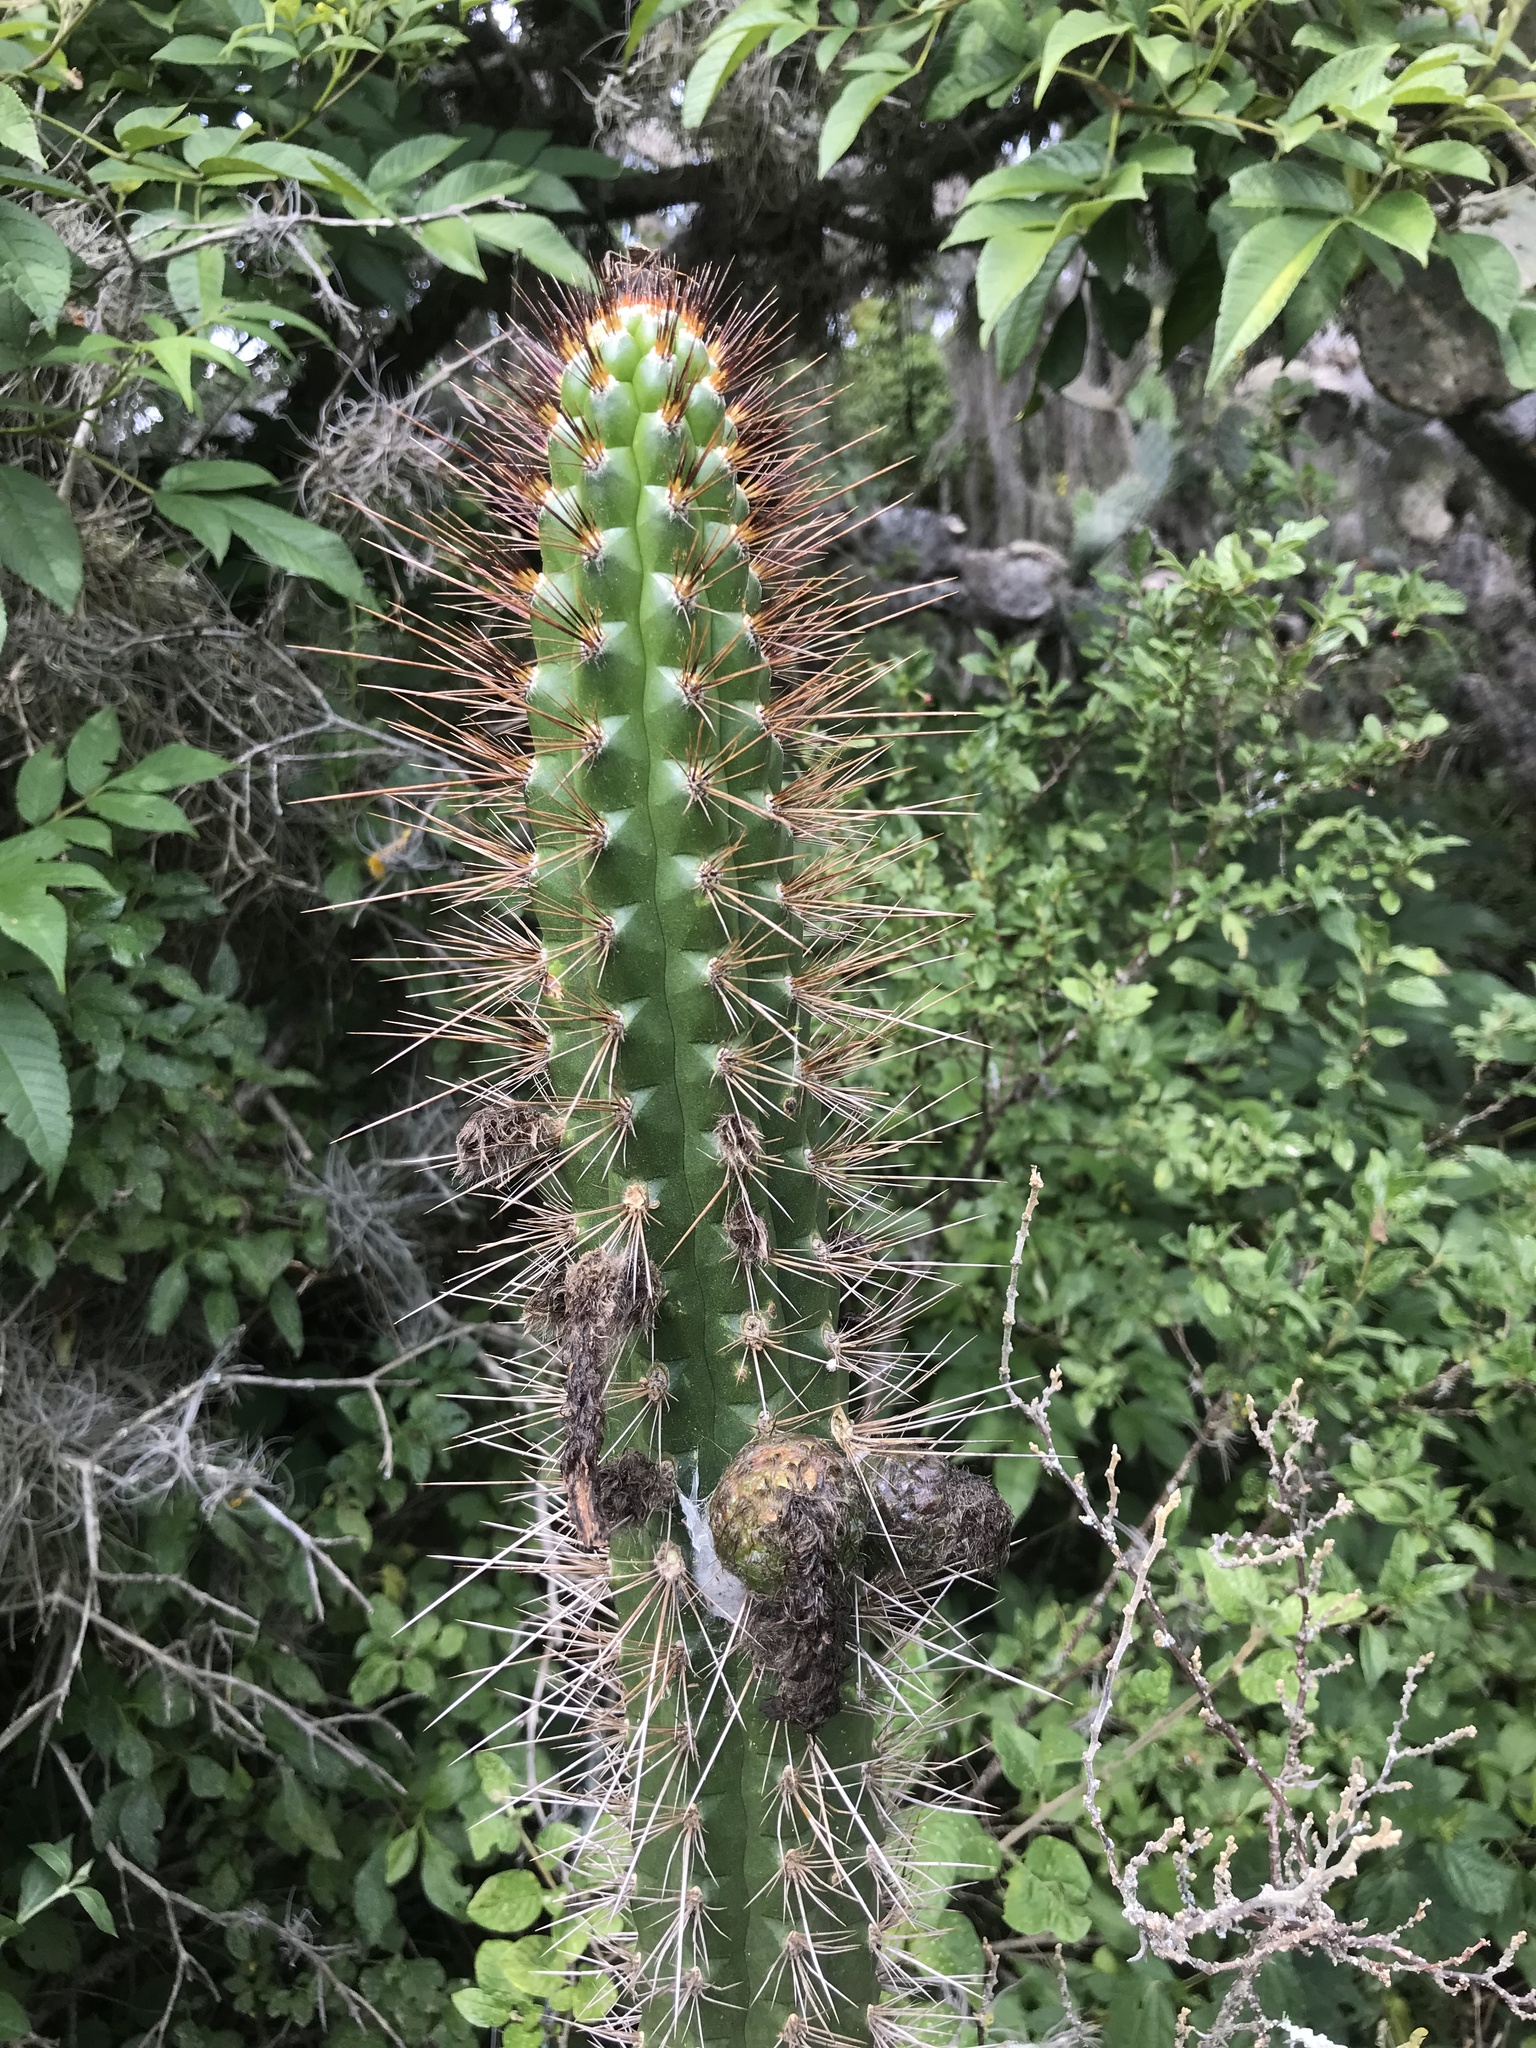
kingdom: Plantae
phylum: Tracheophyta
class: Magnoliopsida
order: Caryophyllales
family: Cactaceae
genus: Borzicactus
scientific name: Borzicactus sepium
